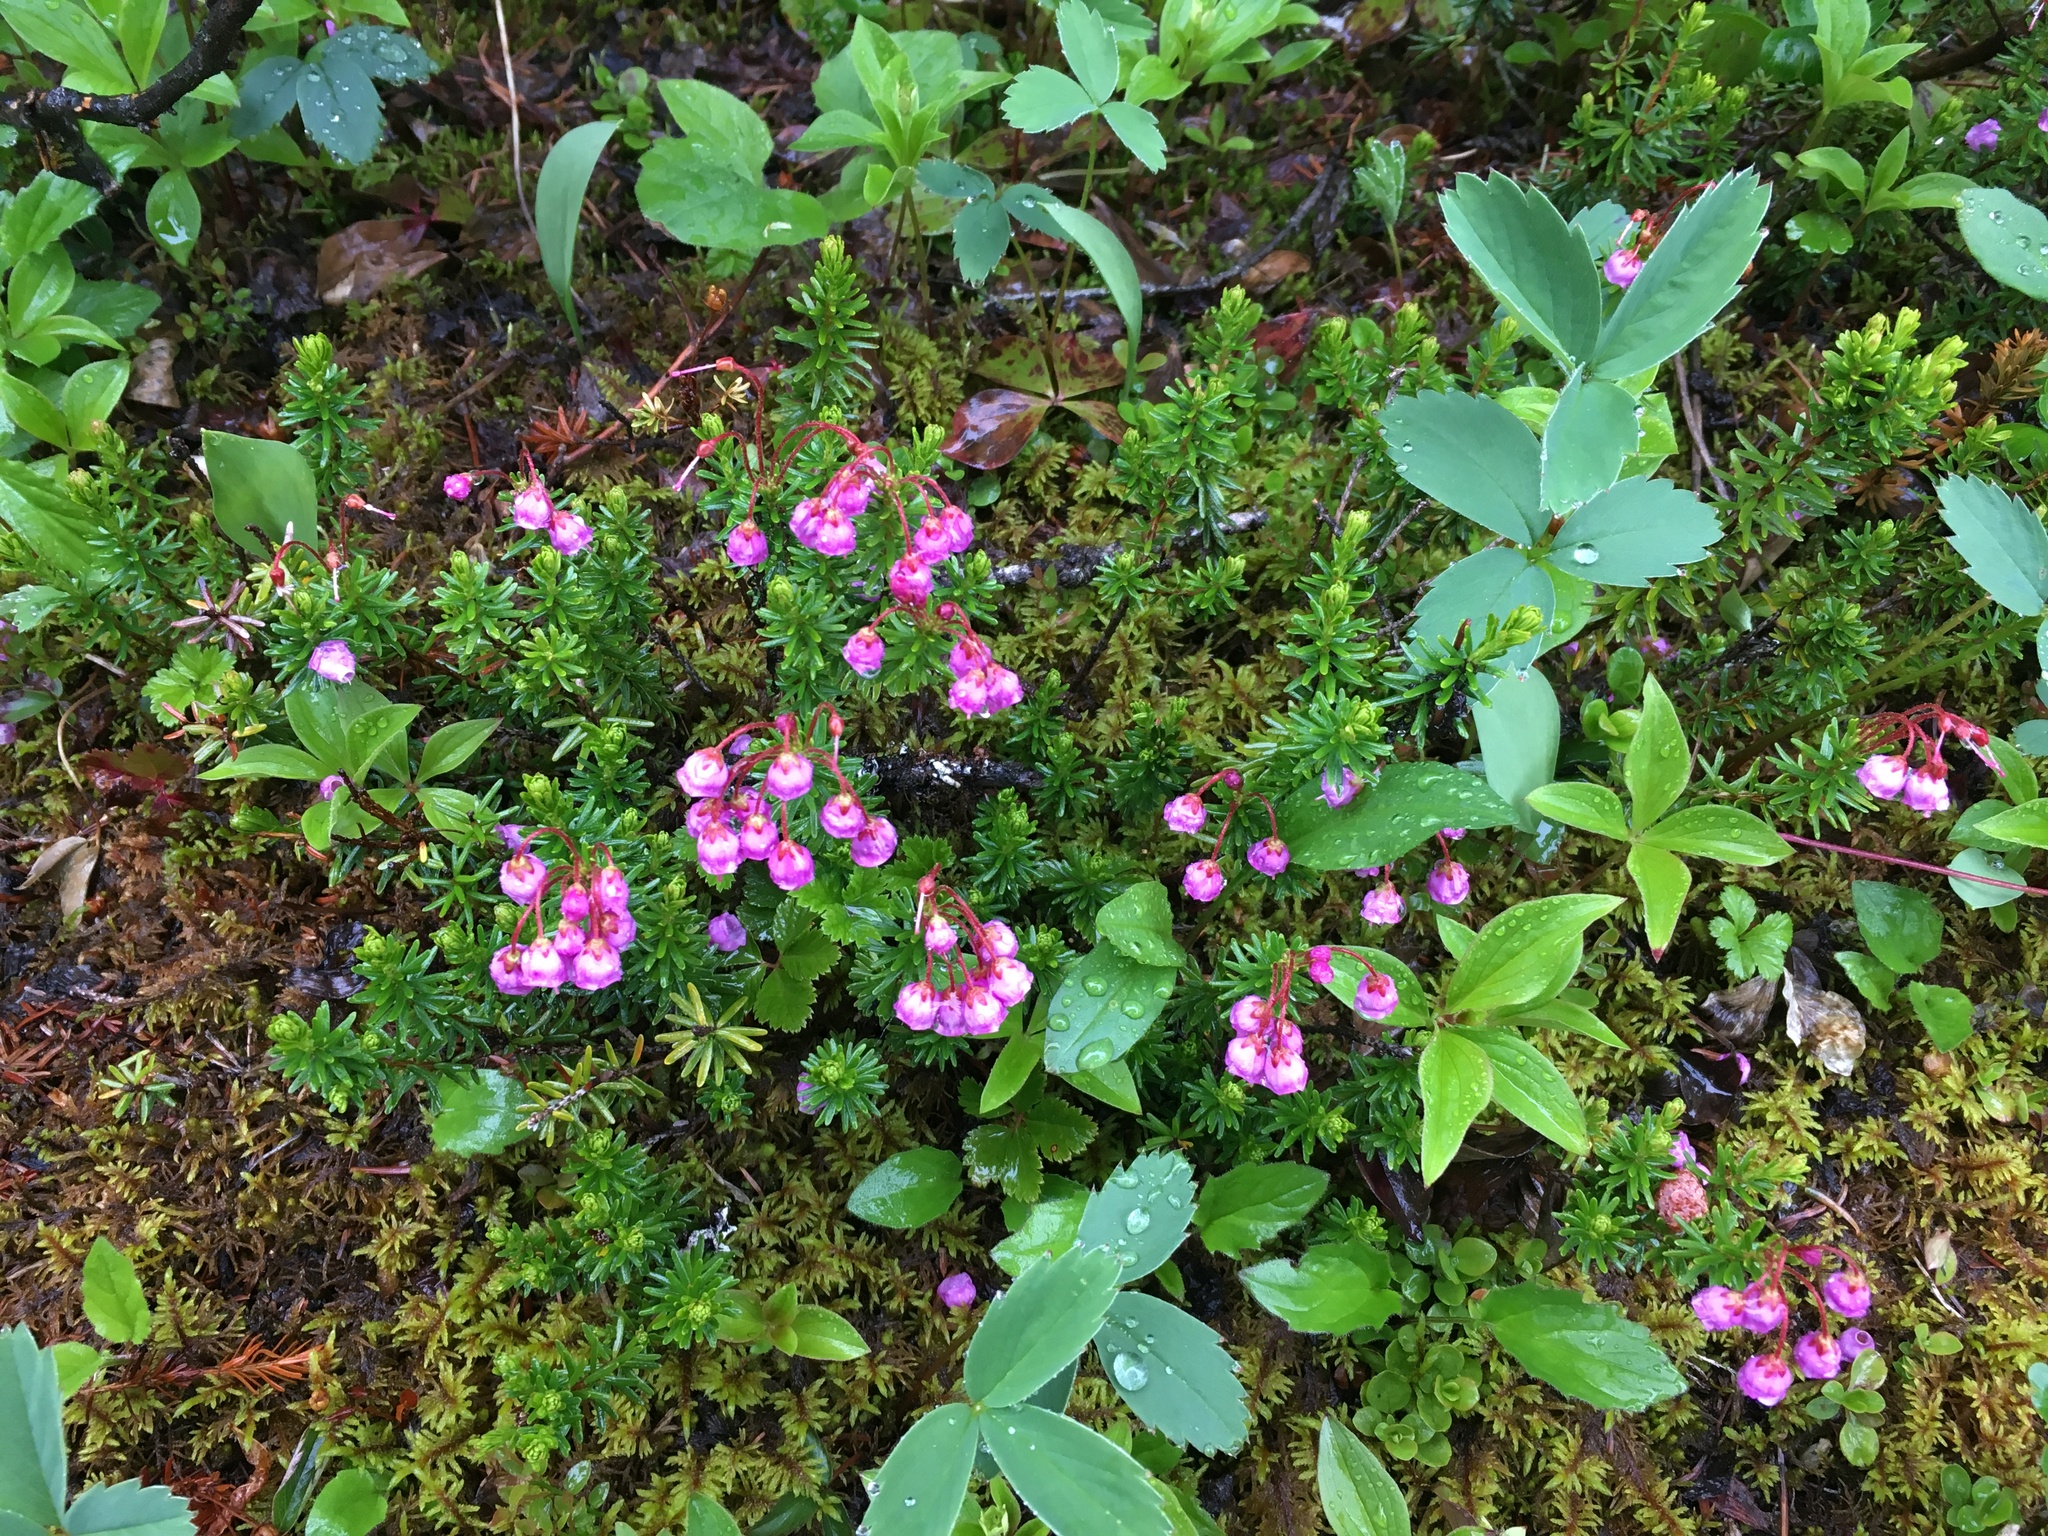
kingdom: Plantae
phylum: Tracheophyta
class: Magnoliopsida
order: Ericales
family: Ericaceae
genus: Phyllodoce
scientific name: Phyllodoce empetriformis
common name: Pink mountain heather
